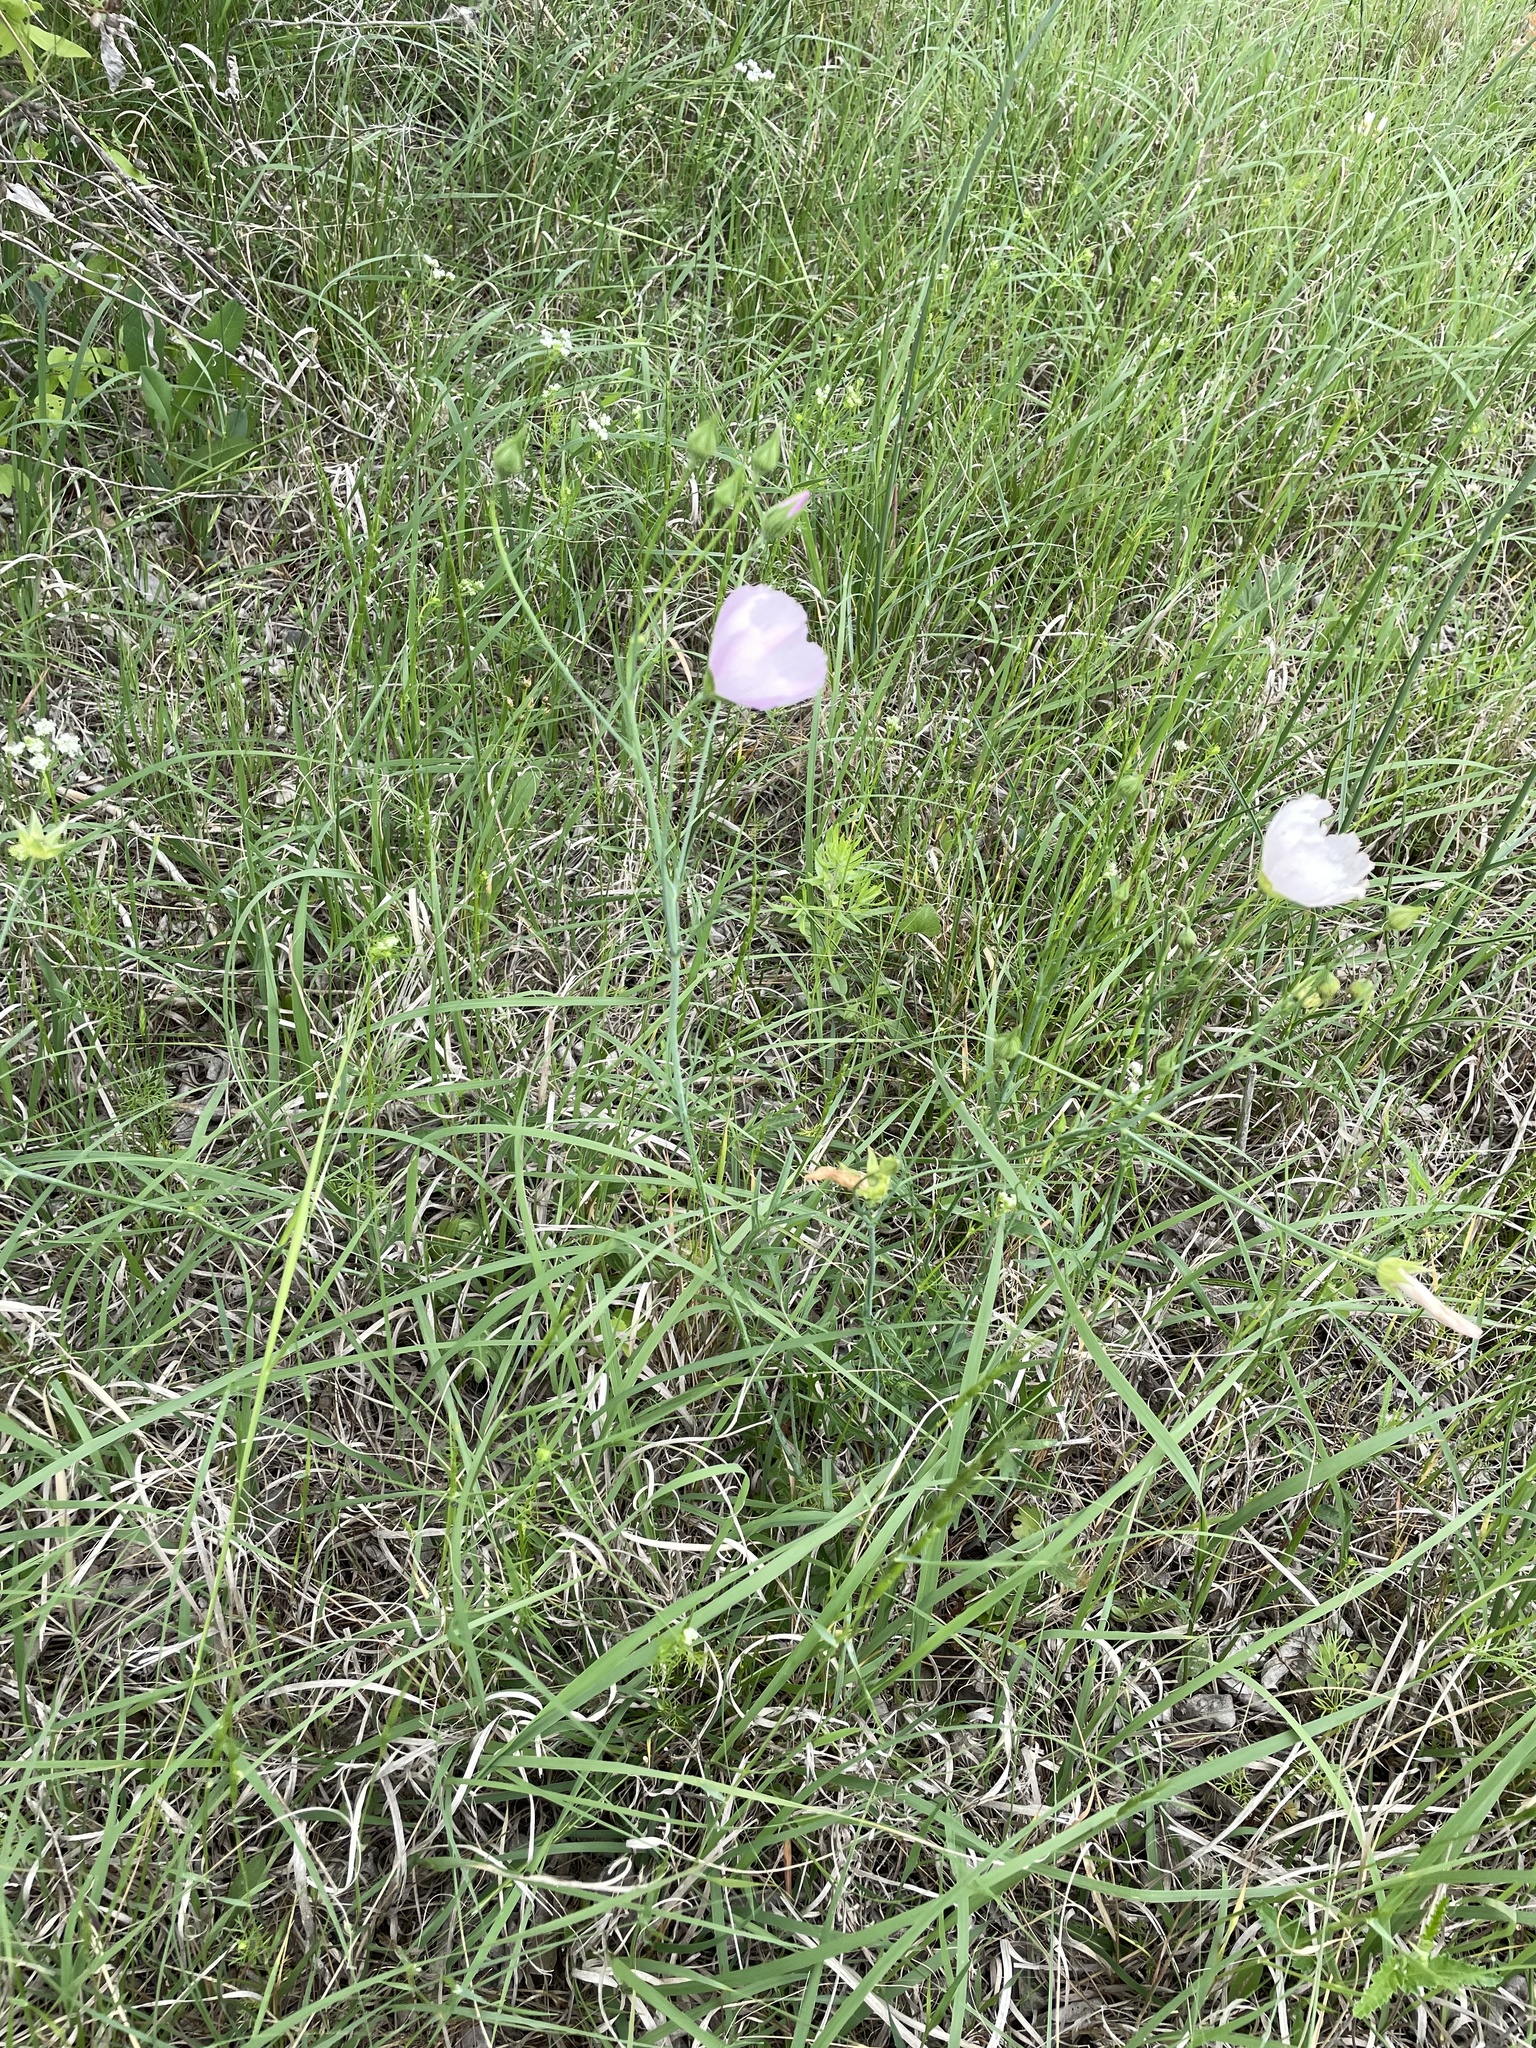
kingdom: Plantae
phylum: Tracheophyta
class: Magnoliopsida
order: Malvales
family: Malvaceae
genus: Callirhoe
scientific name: Callirhoe pedata
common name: Finger poppy-mallow
